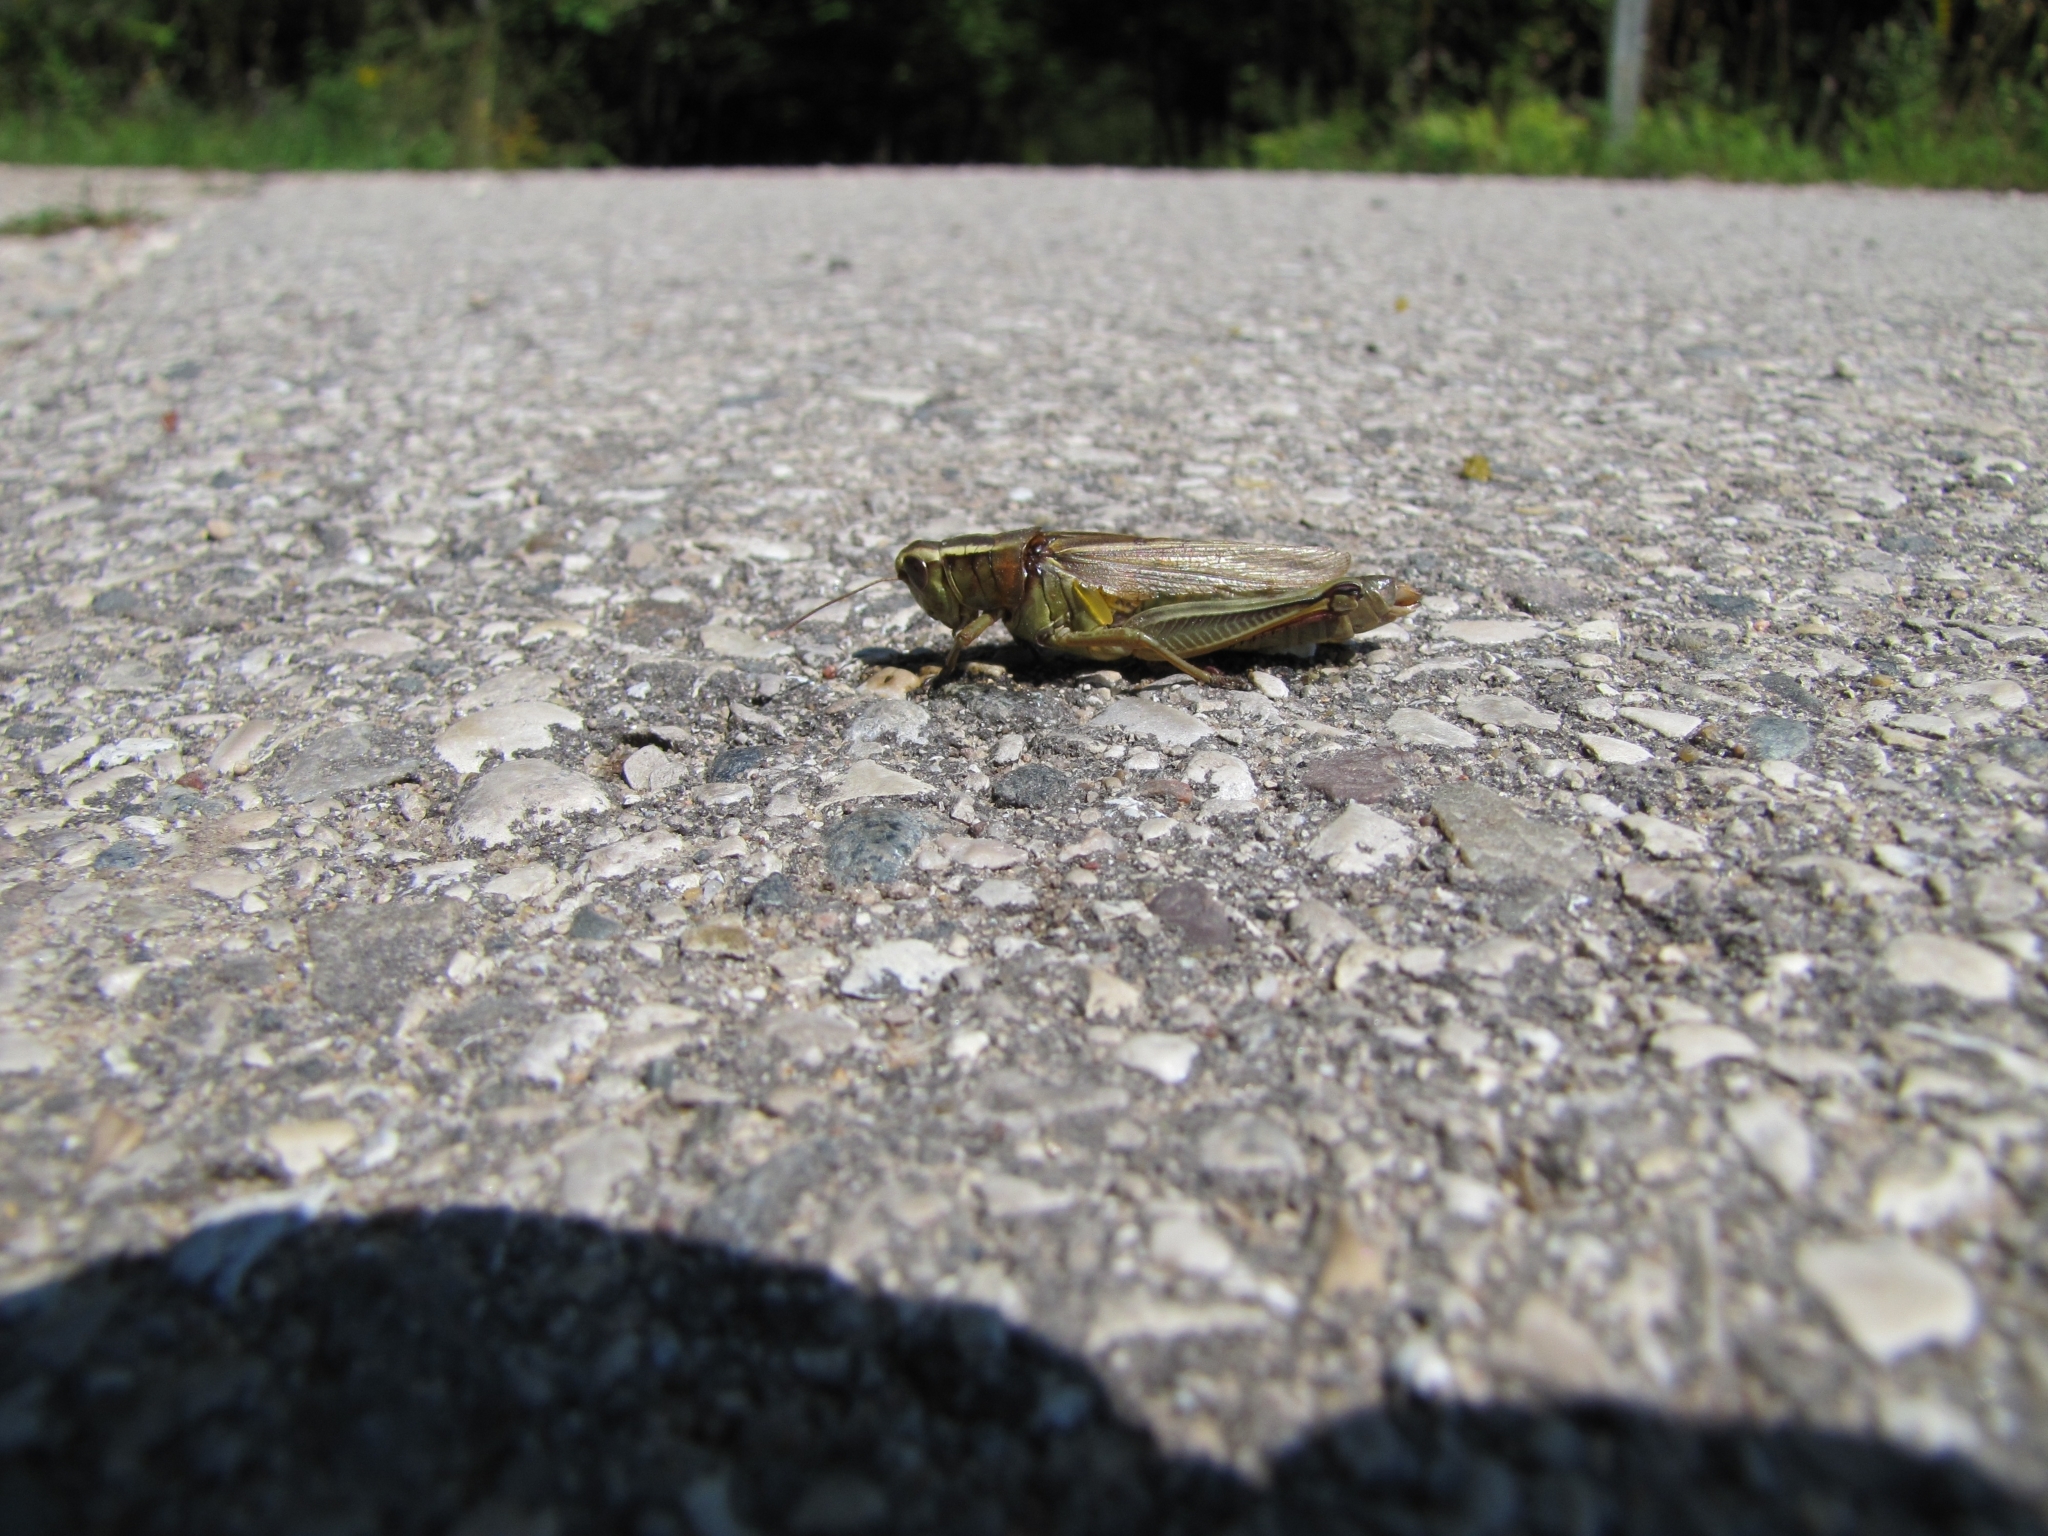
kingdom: Animalia
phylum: Arthropoda
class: Insecta
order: Orthoptera
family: Acrididae
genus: Melanoplus
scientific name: Melanoplus bivittatus
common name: Two-striped grasshopper
